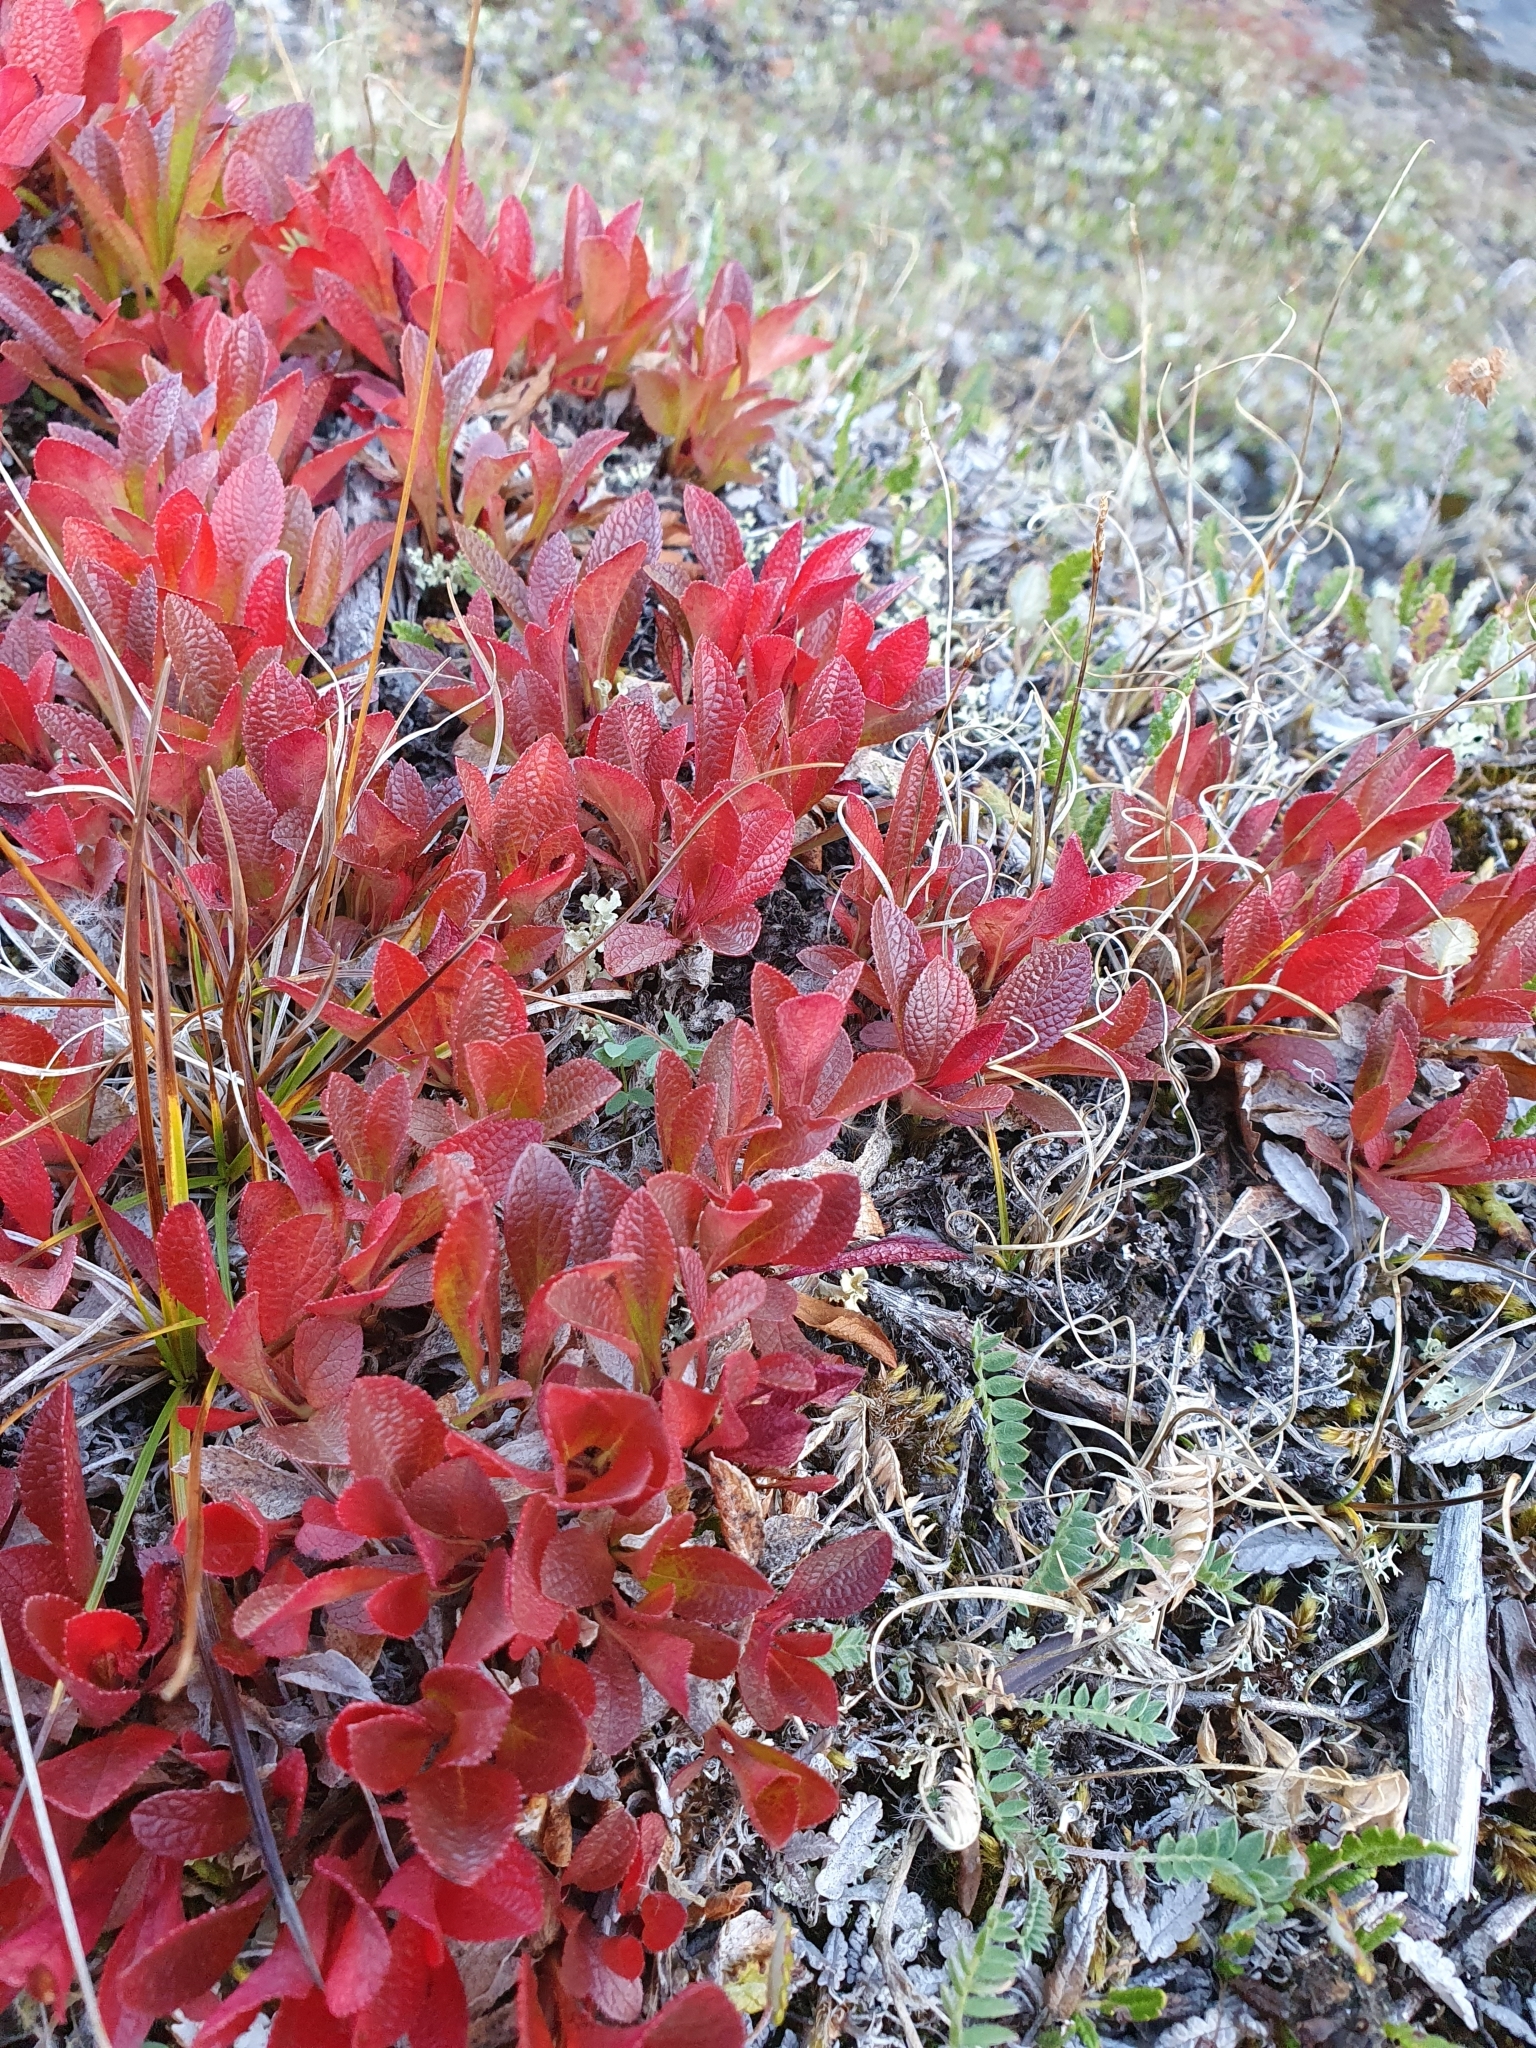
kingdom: Plantae
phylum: Tracheophyta
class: Magnoliopsida
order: Ericales
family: Ericaceae
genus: Arctostaphylos
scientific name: Arctostaphylos alpinus
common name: Alpine bearberry
